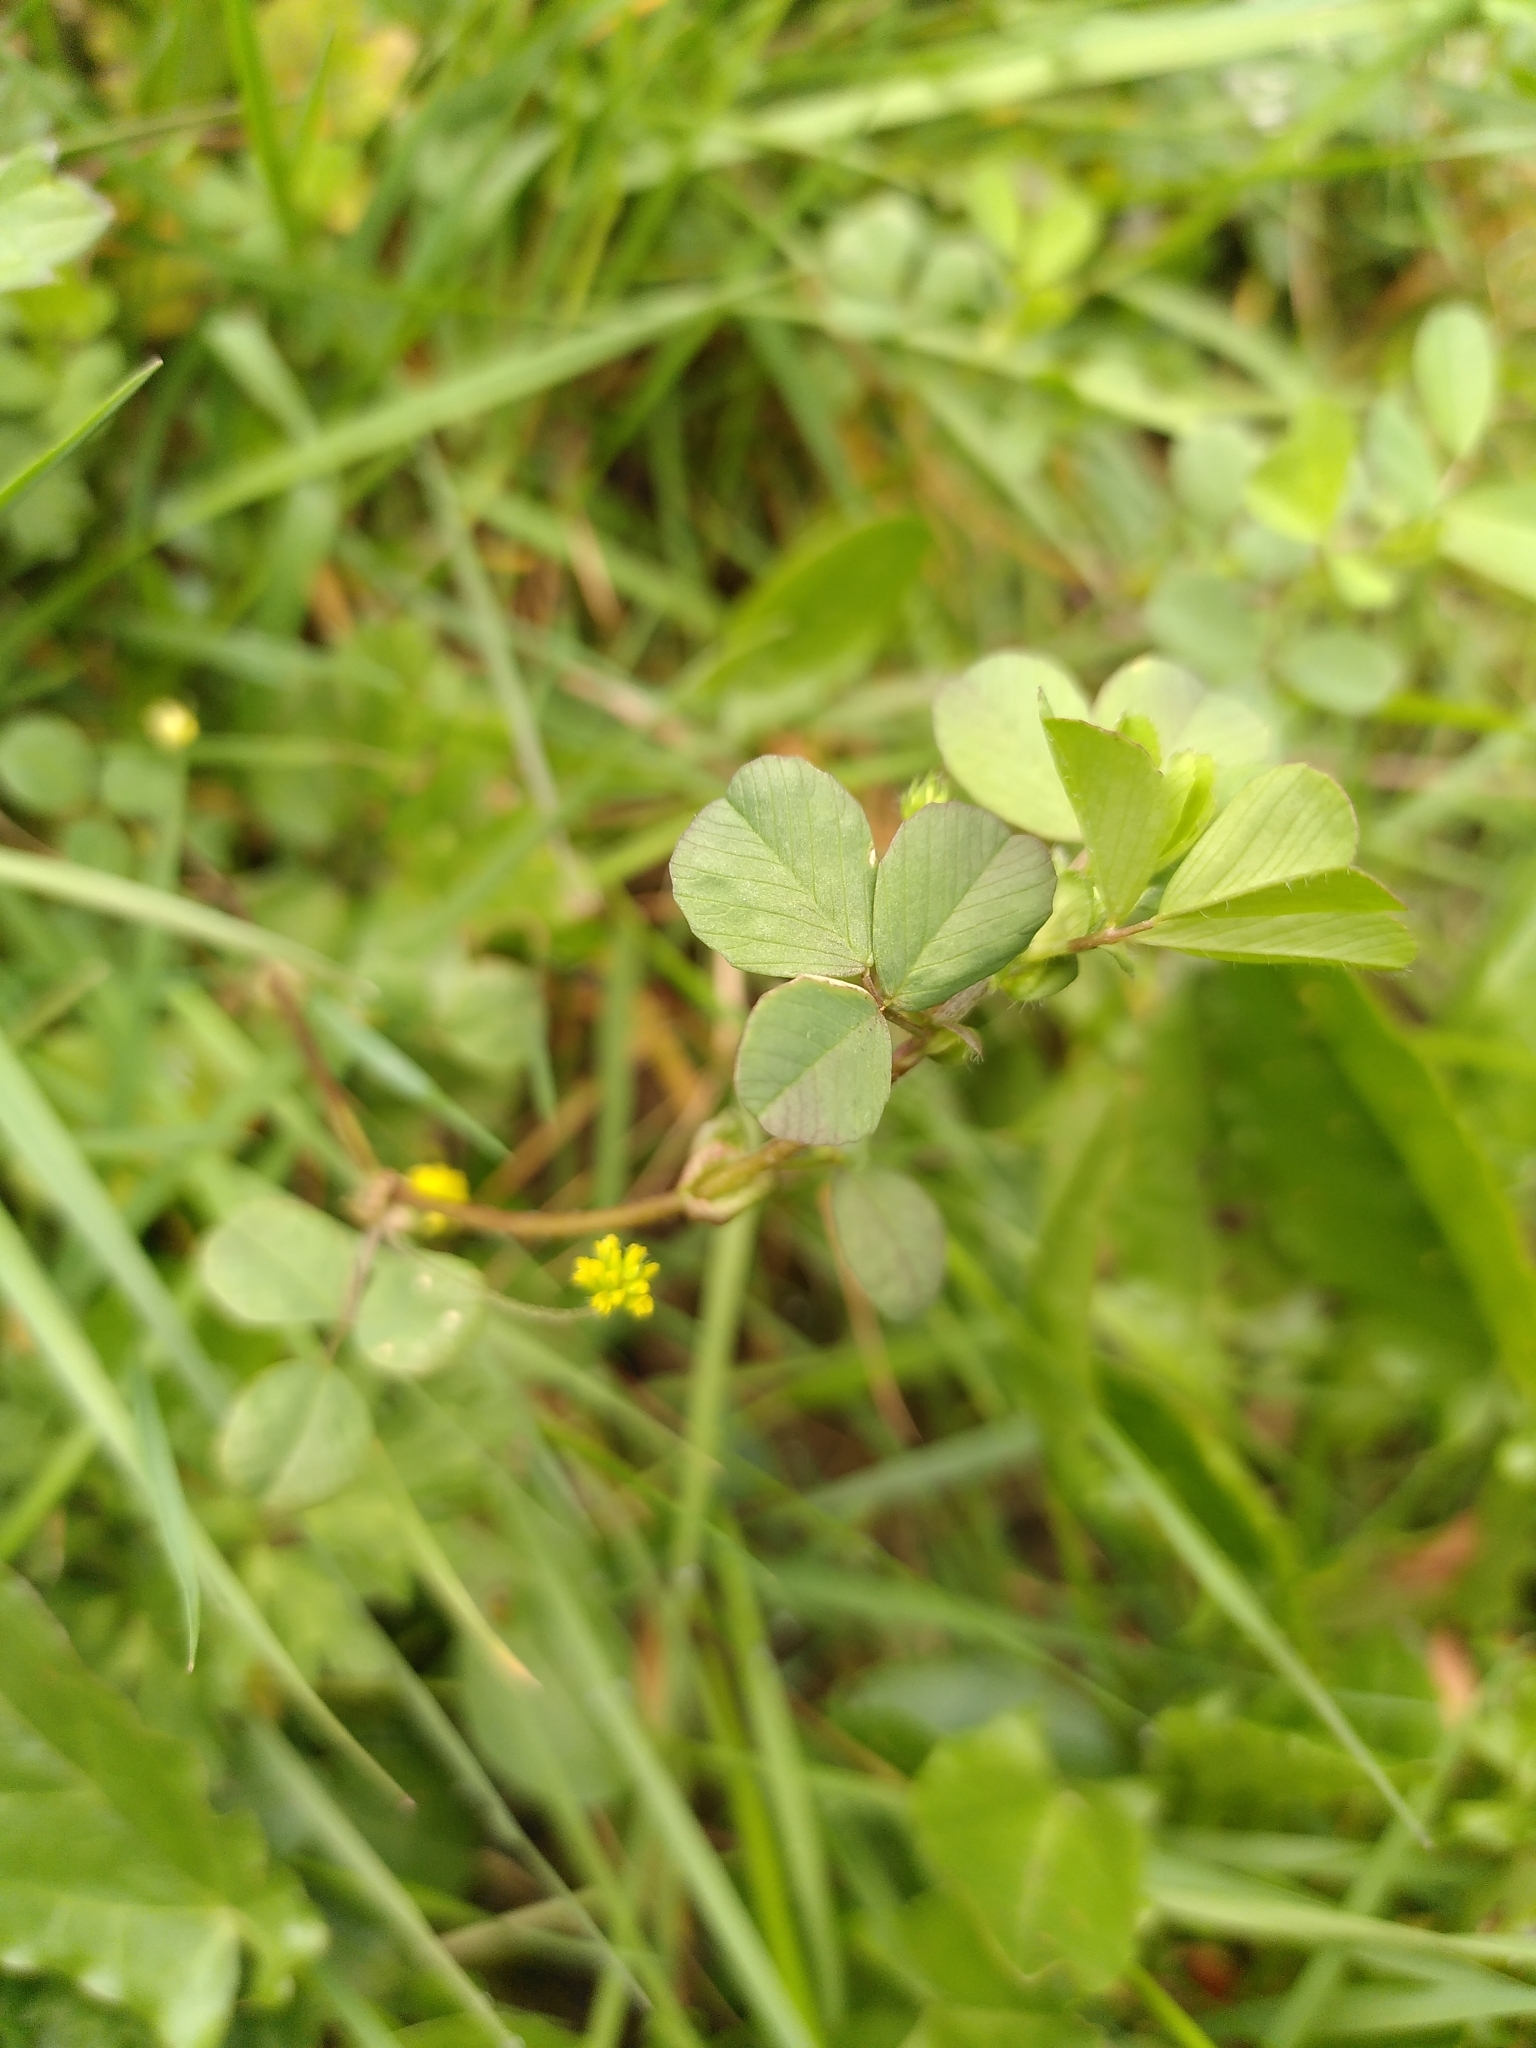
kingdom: Plantae
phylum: Tracheophyta
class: Magnoliopsida
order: Fabales
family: Fabaceae
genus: Trifolium
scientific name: Trifolium dubium
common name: Suckling clover
